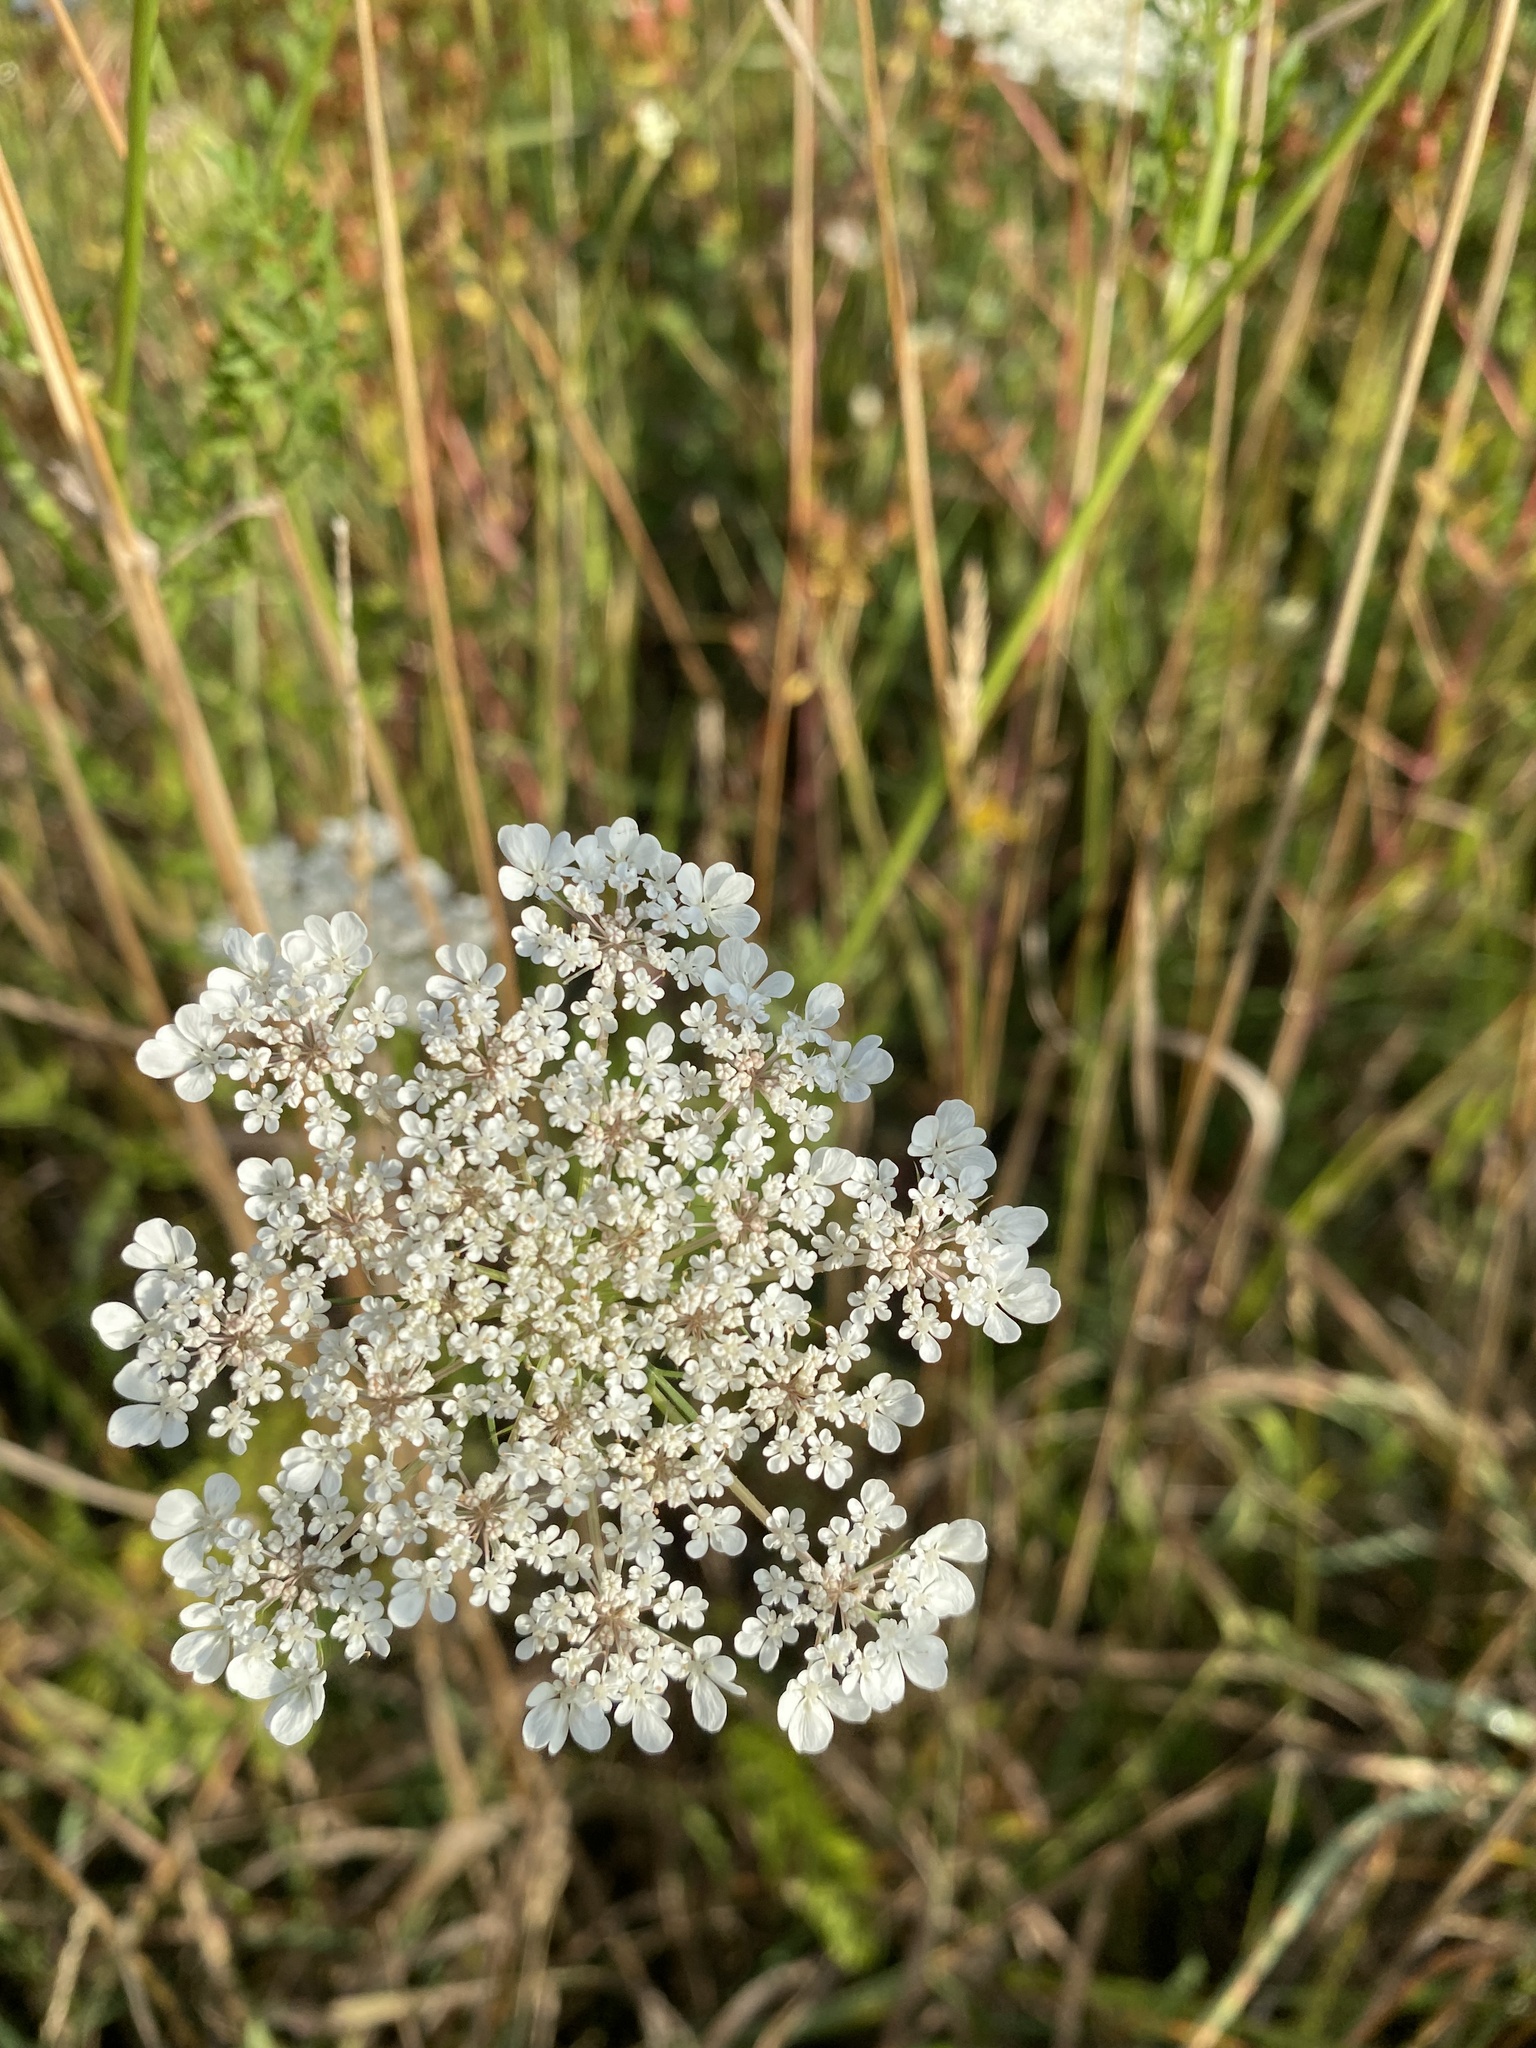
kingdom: Plantae
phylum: Tracheophyta
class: Magnoliopsida
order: Apiales
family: Apiaceae
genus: Daucus
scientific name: Daucus carota
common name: Wild carrot
